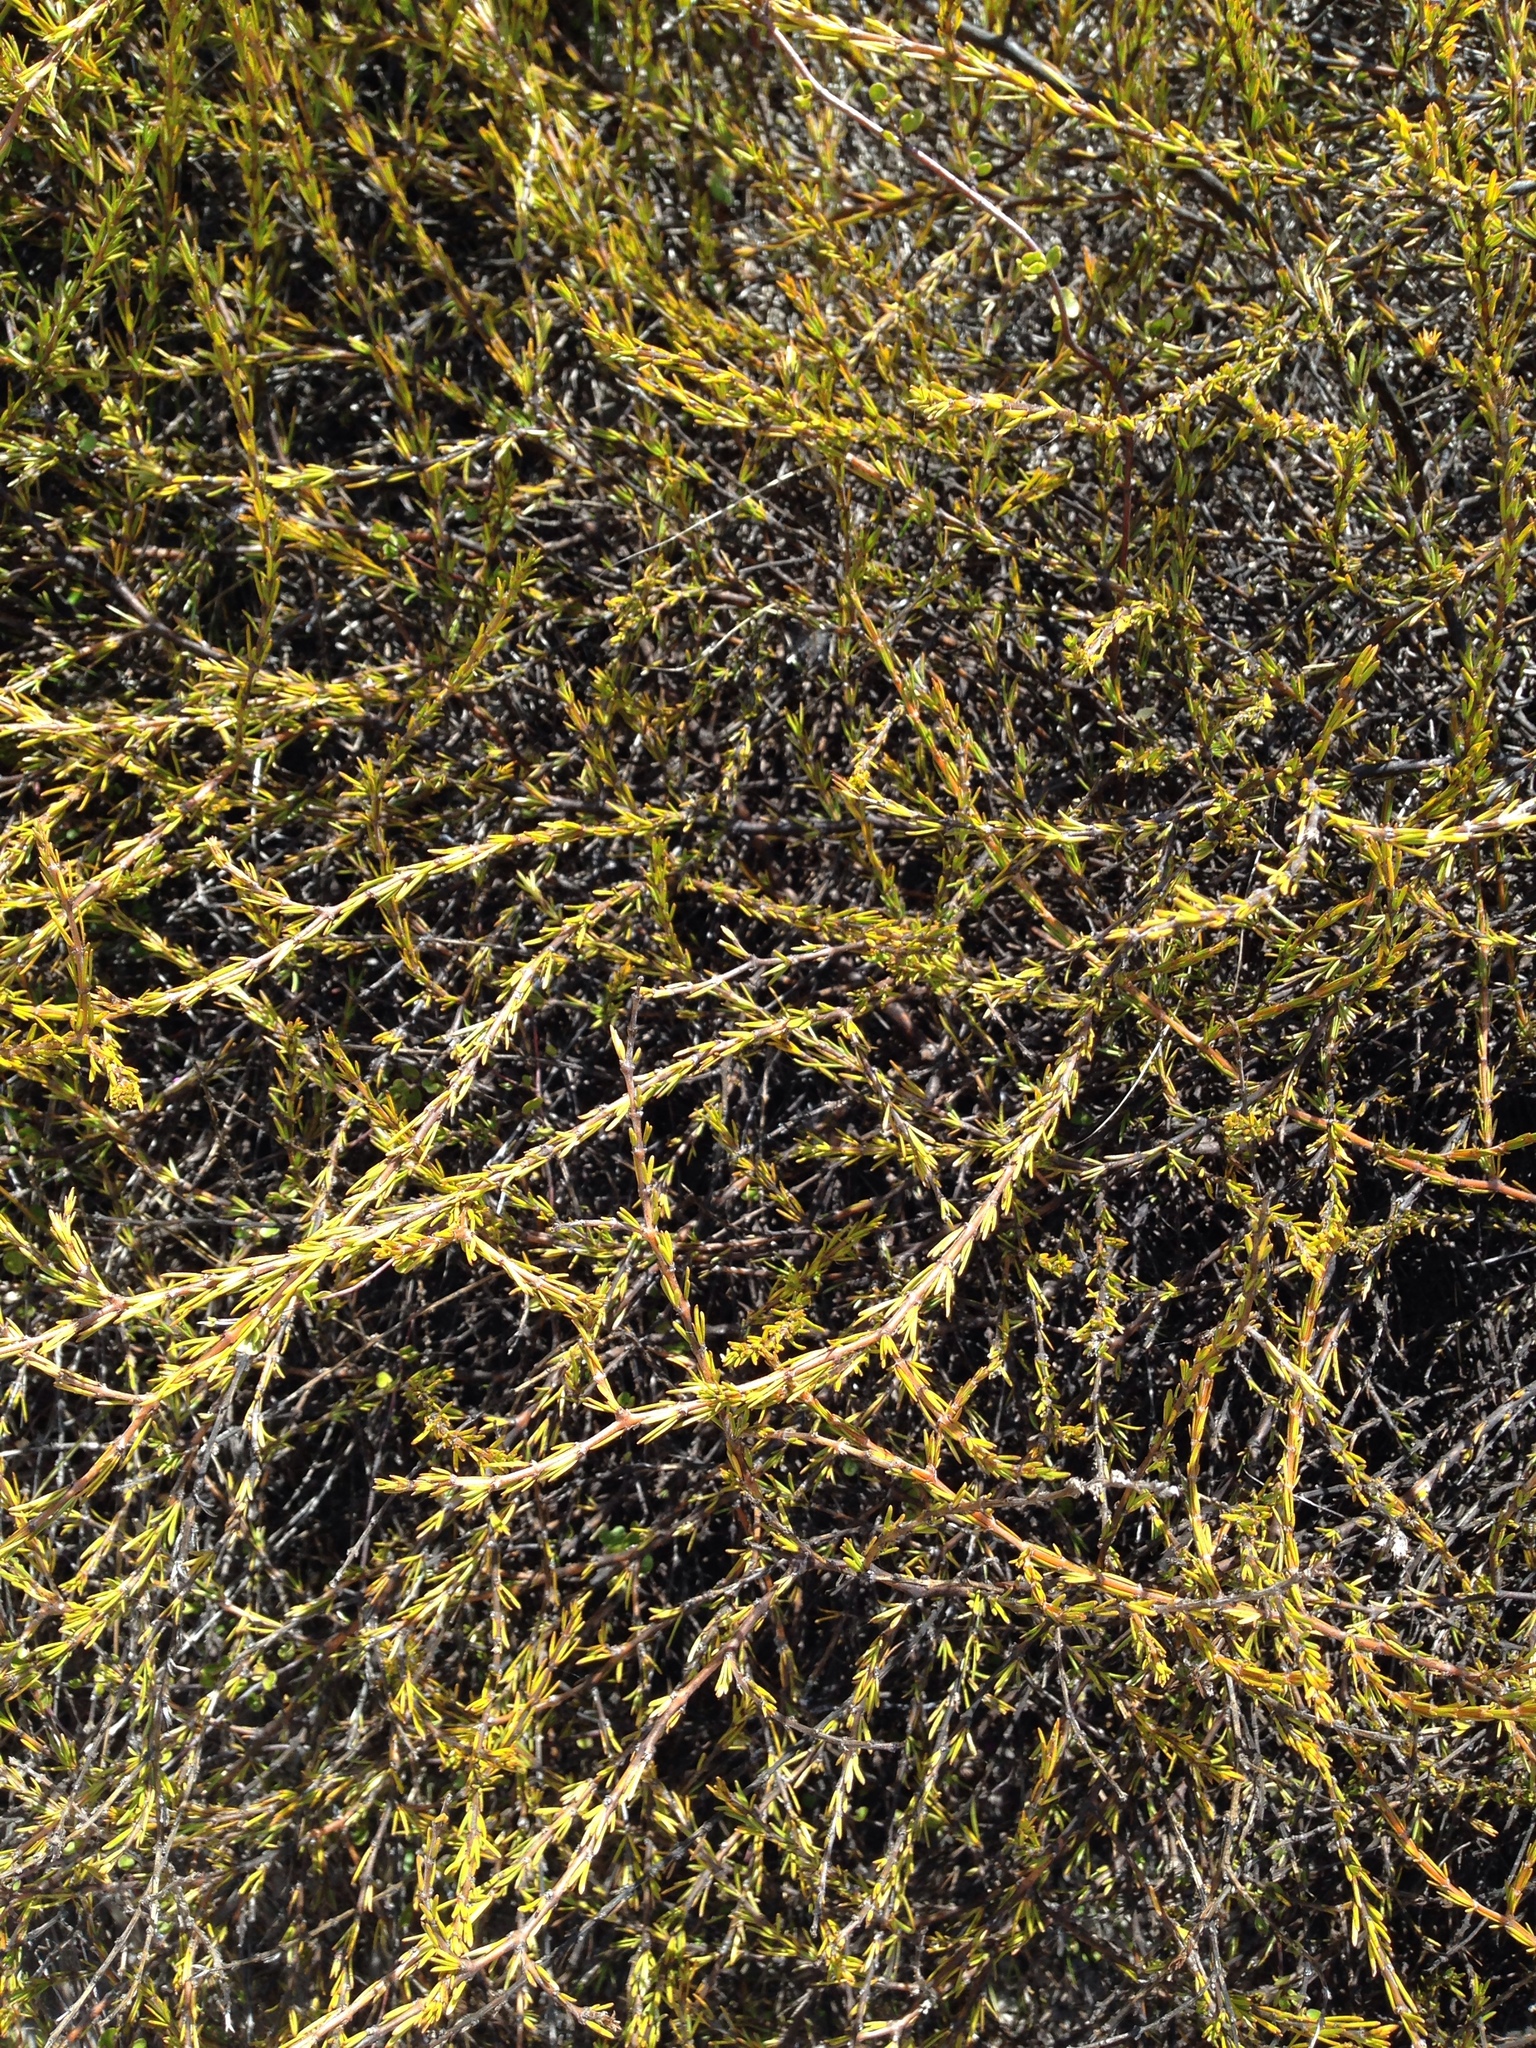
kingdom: Plantae
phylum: Tracheophyta
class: Magnoliopsida
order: Gentianales
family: Rubiaceae
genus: Coprosma
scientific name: Coprosma acerosa
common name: Sand coprosma
